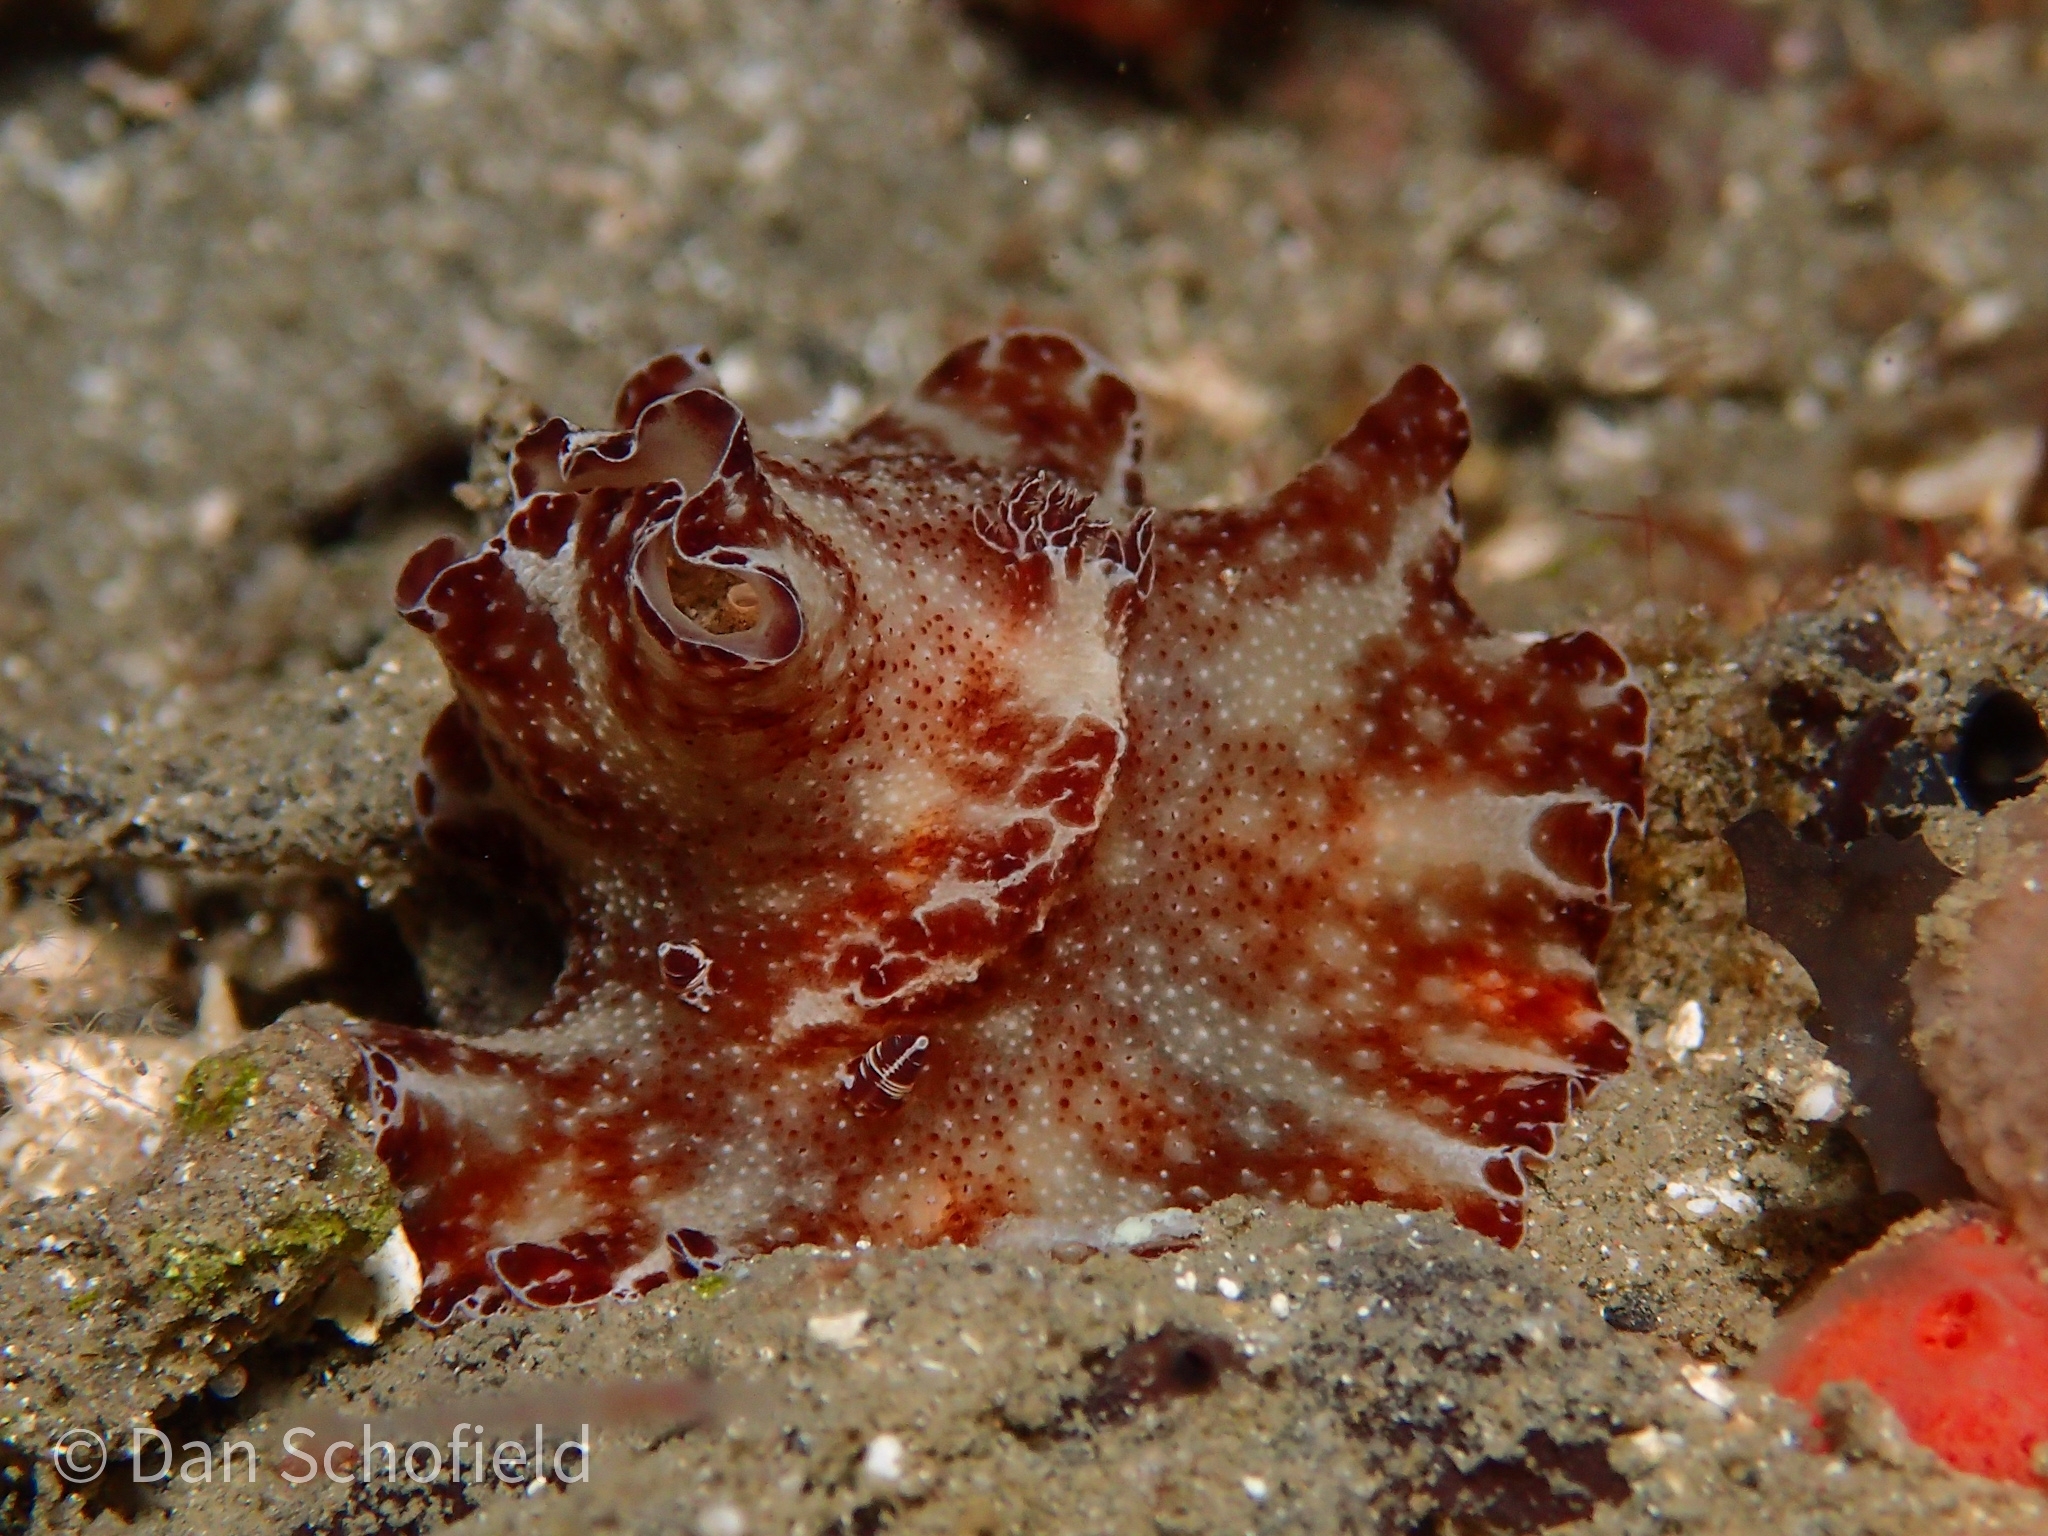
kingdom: Animalia
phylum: Mollusca
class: Gastropoda
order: Nudibranchia
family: Discodorididae
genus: Discodoris
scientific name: Discodoris boholiensis
